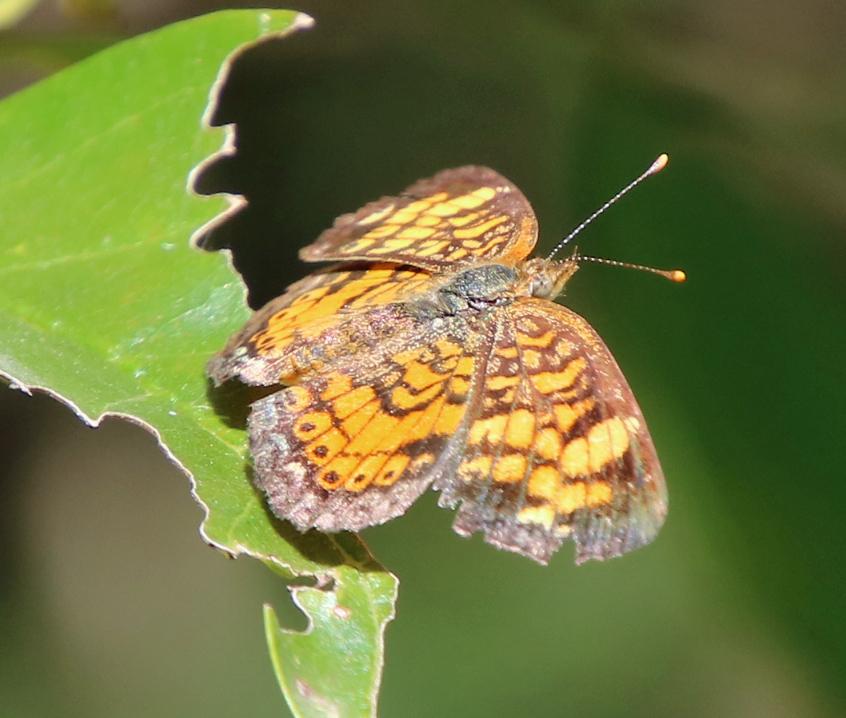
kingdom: Animalia
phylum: Arthropoda
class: Insecta
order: Lepidoptera
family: Nymphalidae
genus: Phyciodes
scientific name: Phyciodes tharos
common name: Pearl crescent
